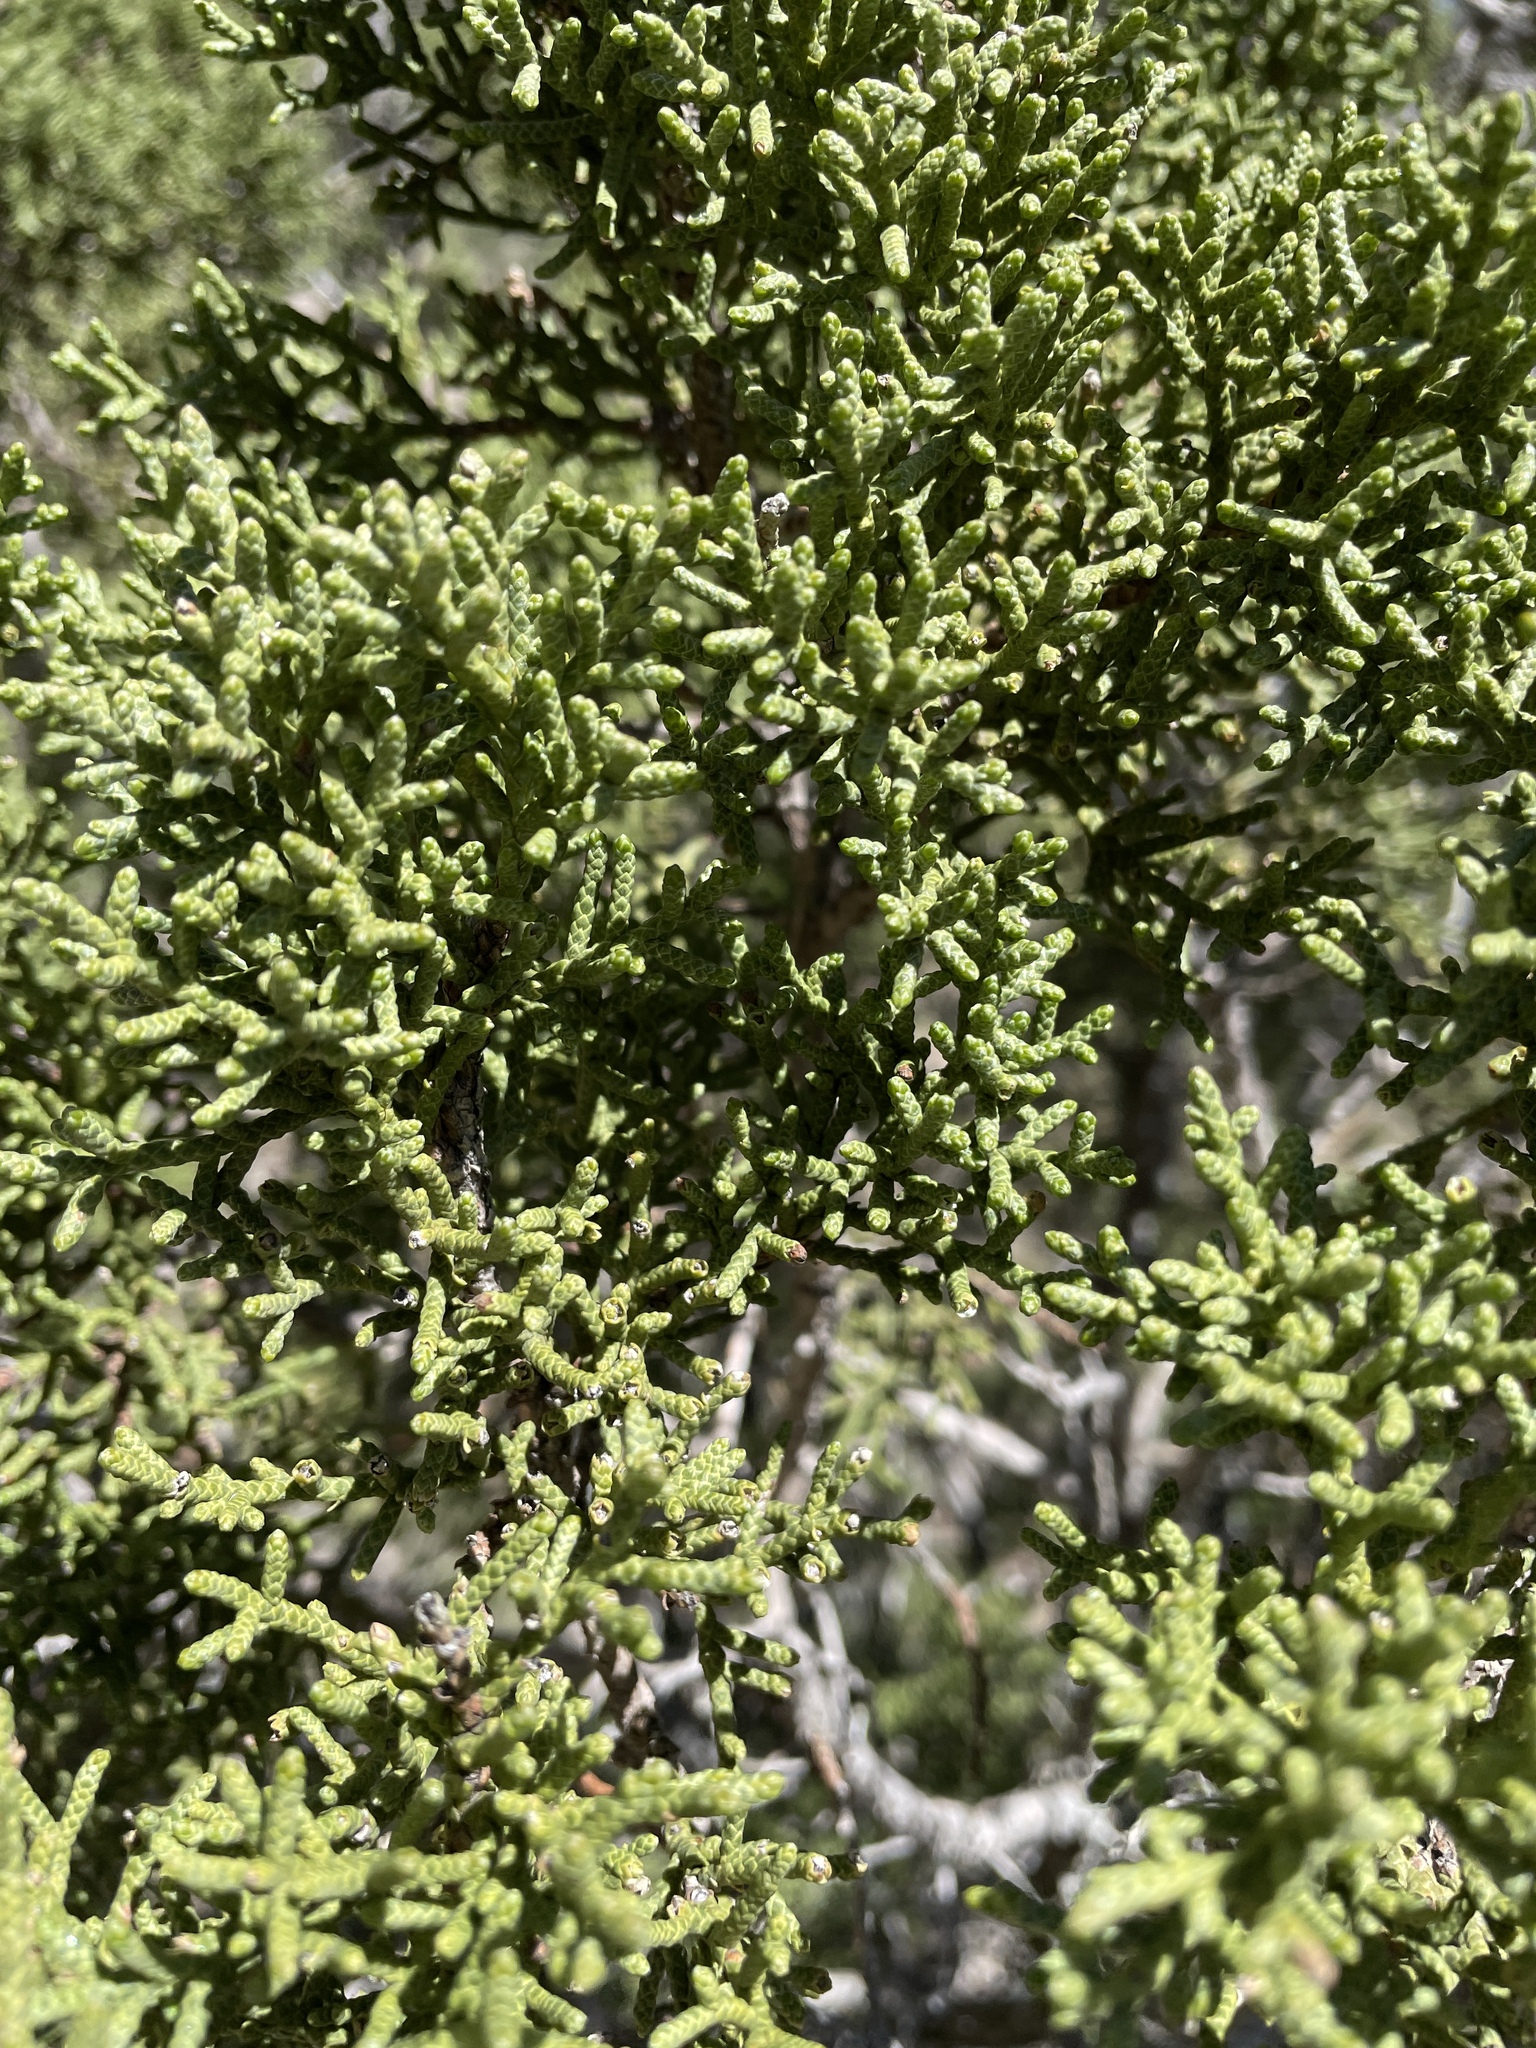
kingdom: Plantae
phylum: Tracheophyta
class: Pinopsida
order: Pinales
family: Cupressaceae
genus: Juniperus
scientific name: Juniperus californica
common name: California juniper
